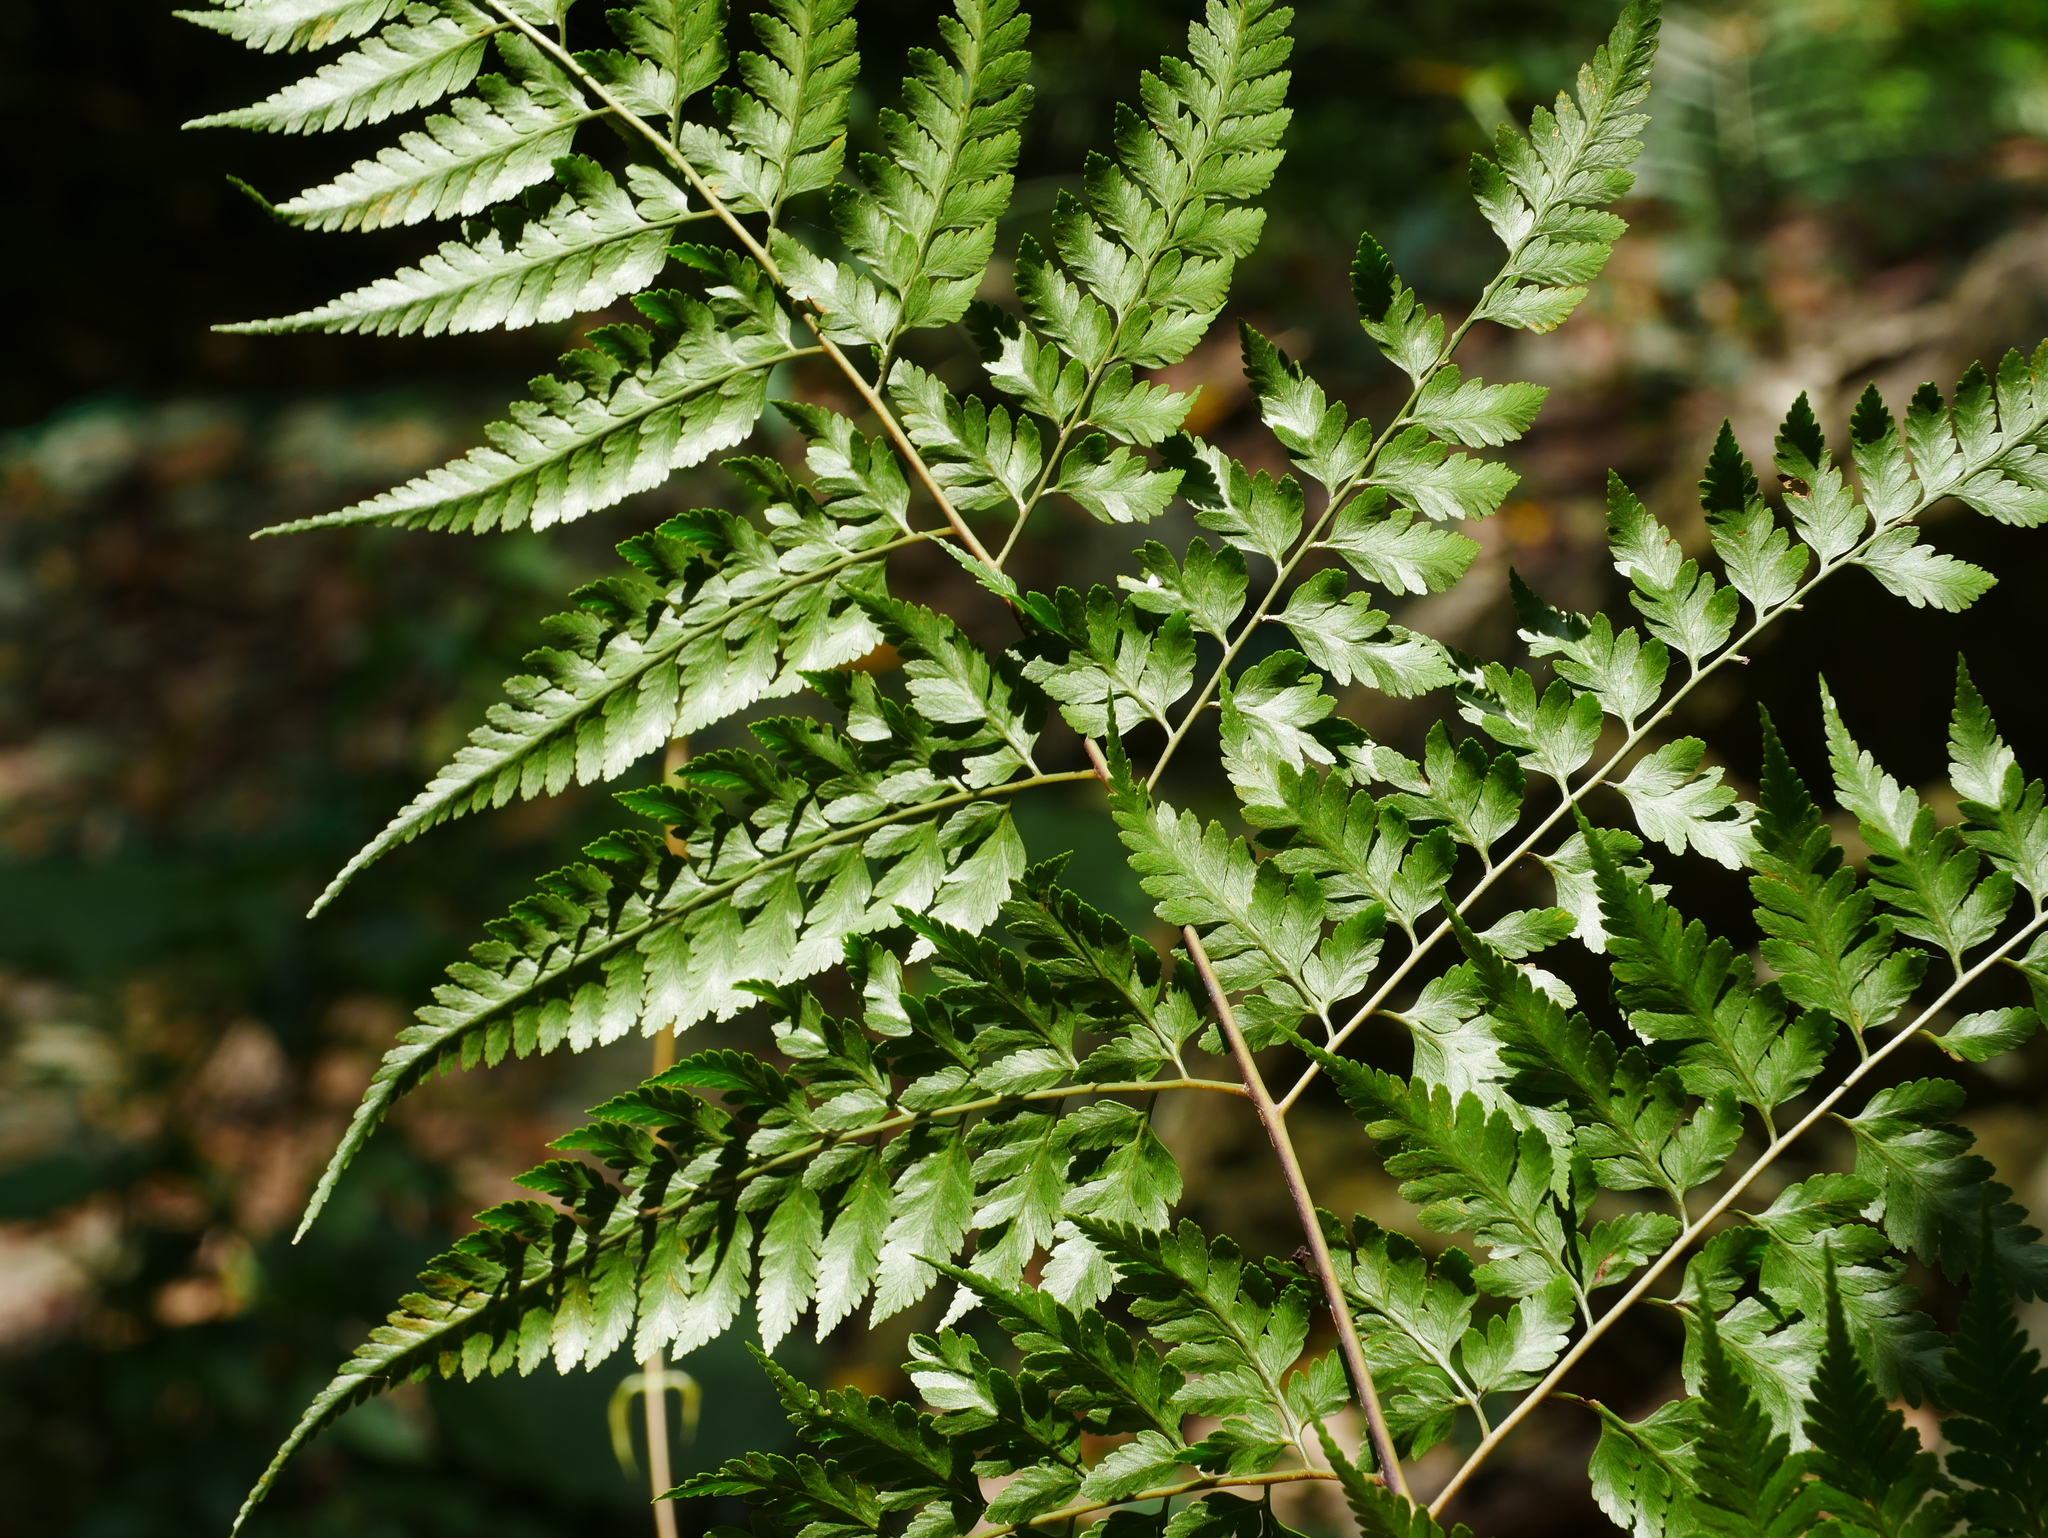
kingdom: Plantae
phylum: Tracheophyta
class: Polypodiopsida
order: Polypodiales
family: Davalliaceae
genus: Davallia
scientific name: Davallia divaricata
